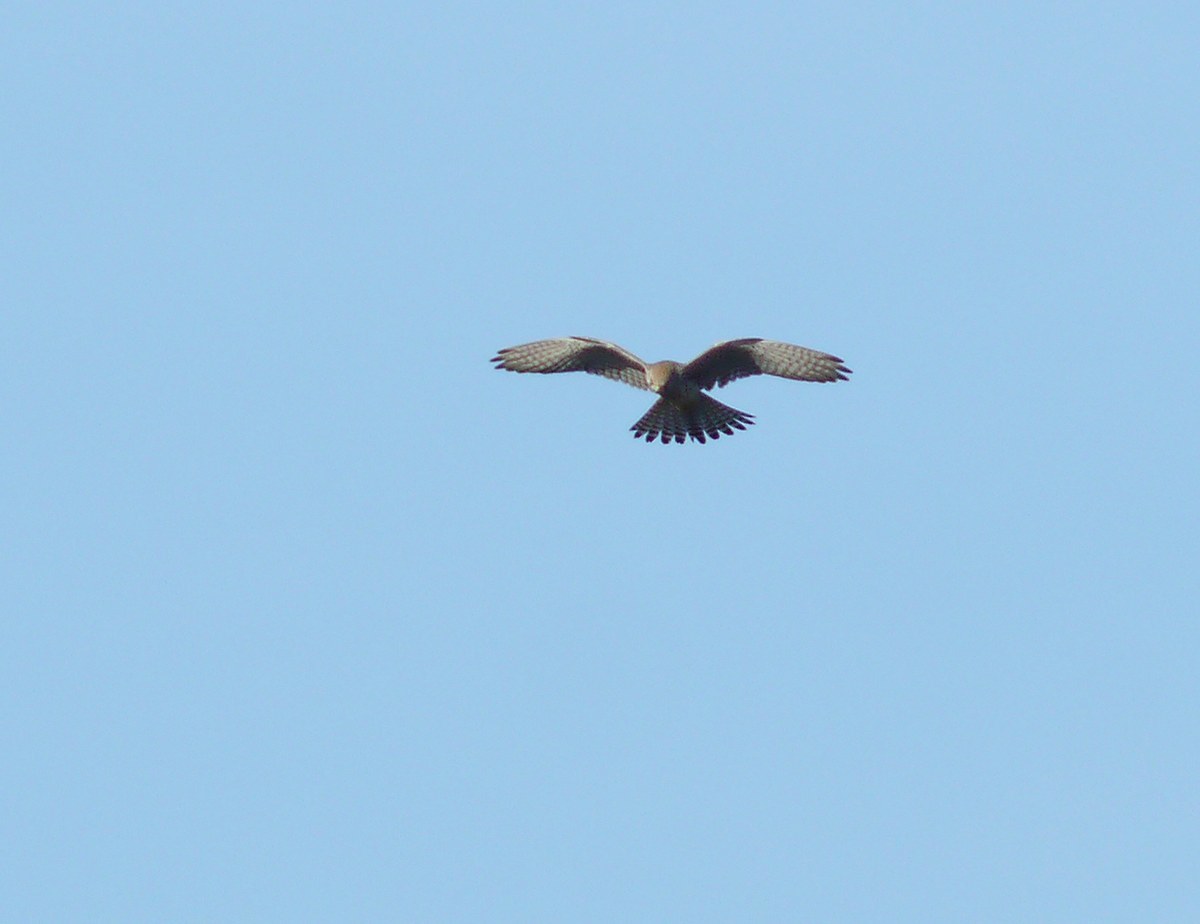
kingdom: Animalia
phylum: Chordata
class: Aves
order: Falconiformes
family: Falconidae
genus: Falco
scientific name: Falco tinnunculus
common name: Common kestrel
